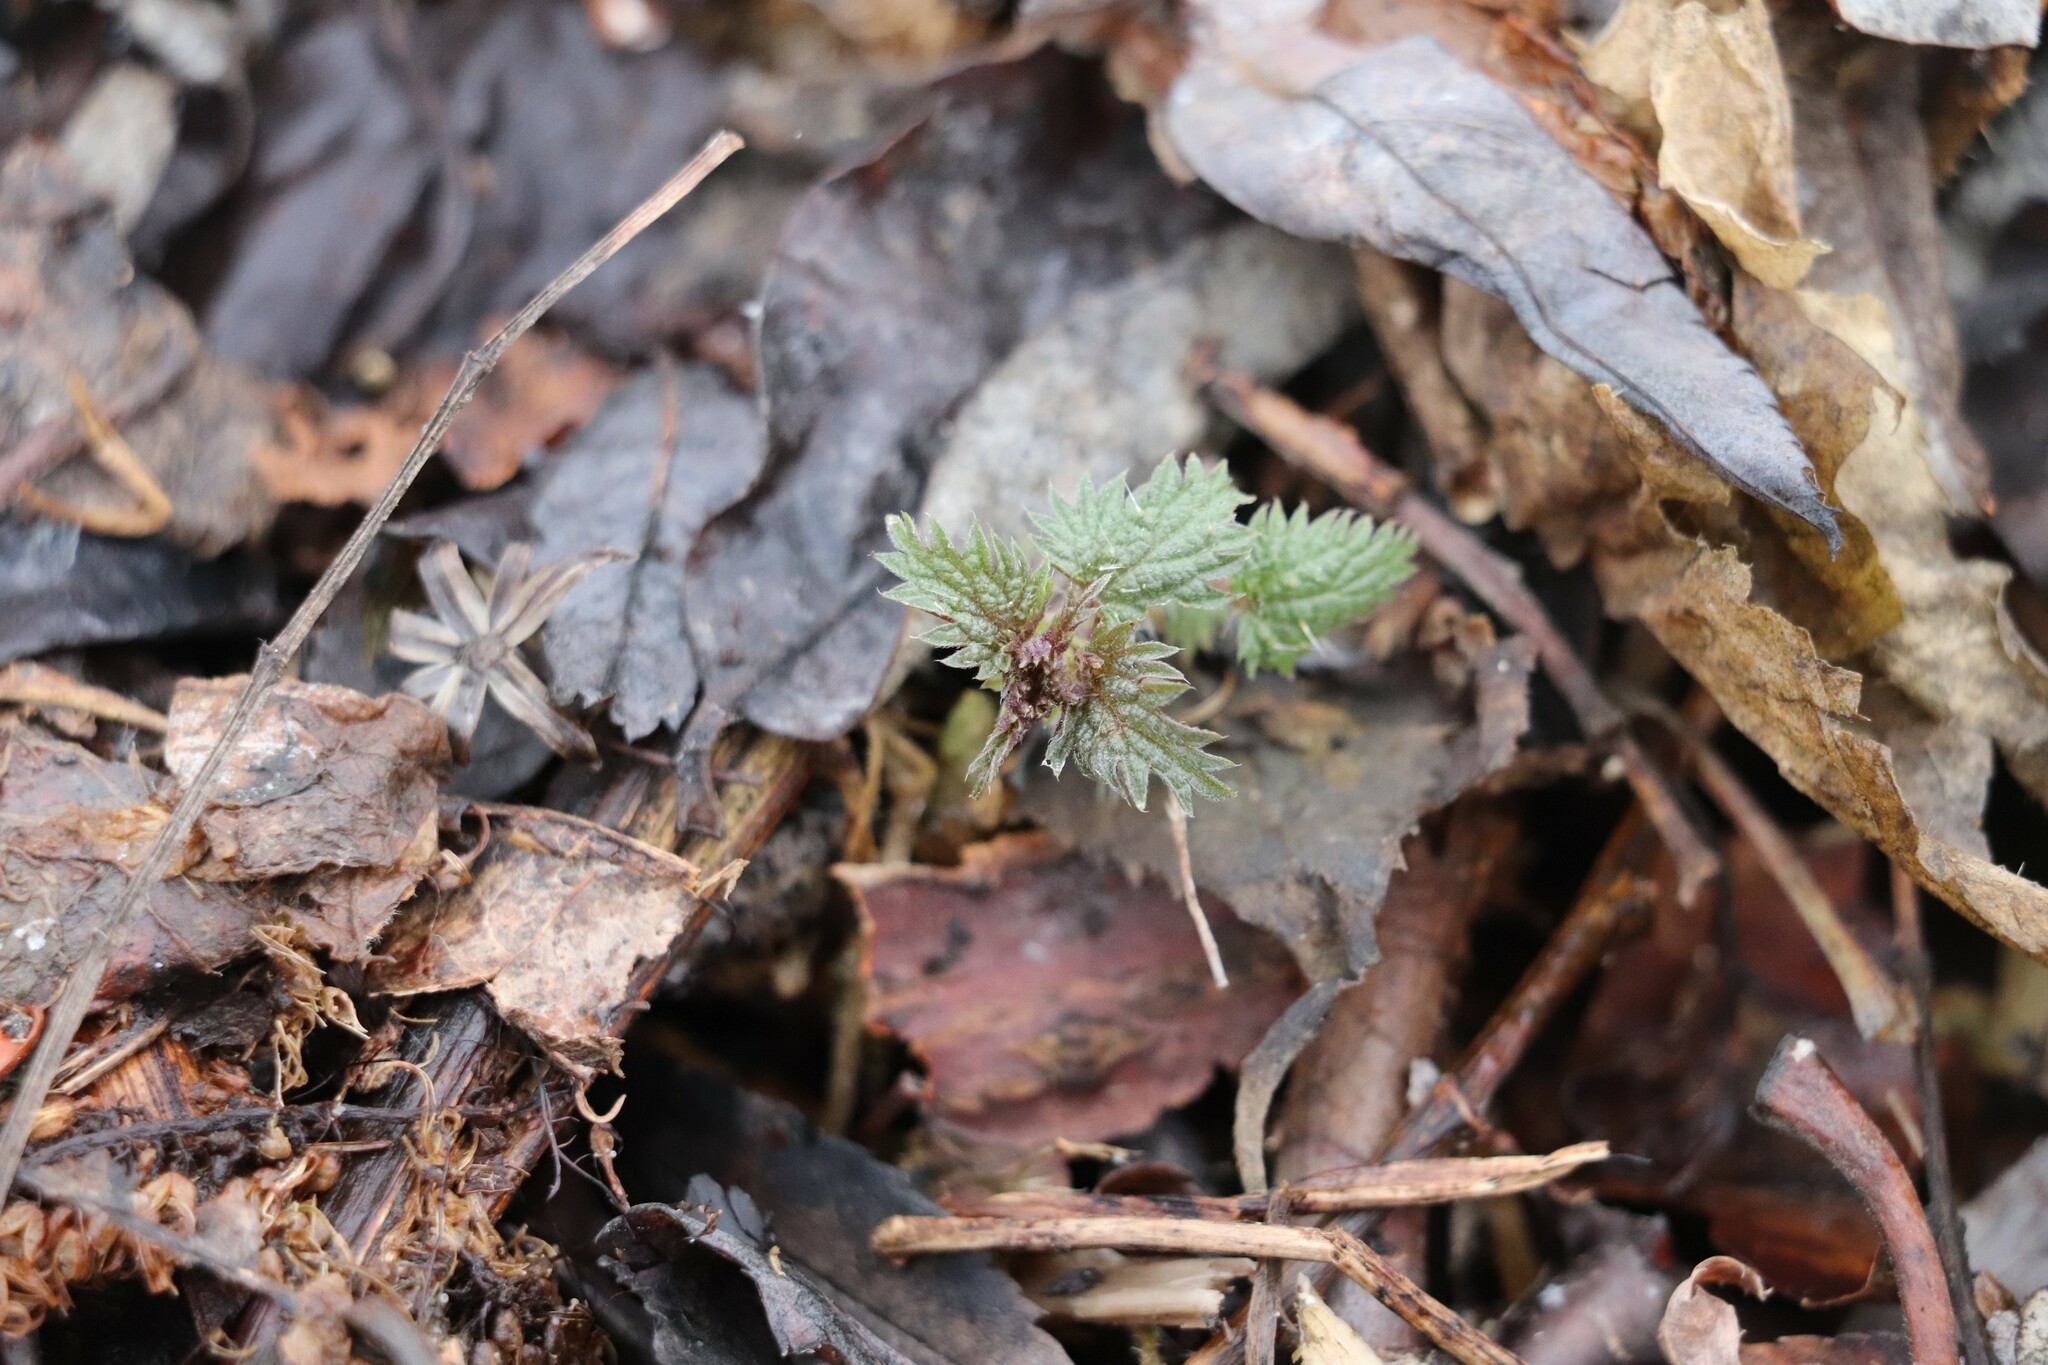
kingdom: Plantae
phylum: Tracheophyta
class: Magnoliopsida
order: Rosales
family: Urticaceae
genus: Urtica
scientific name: Urtica dioica
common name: Common nettle
